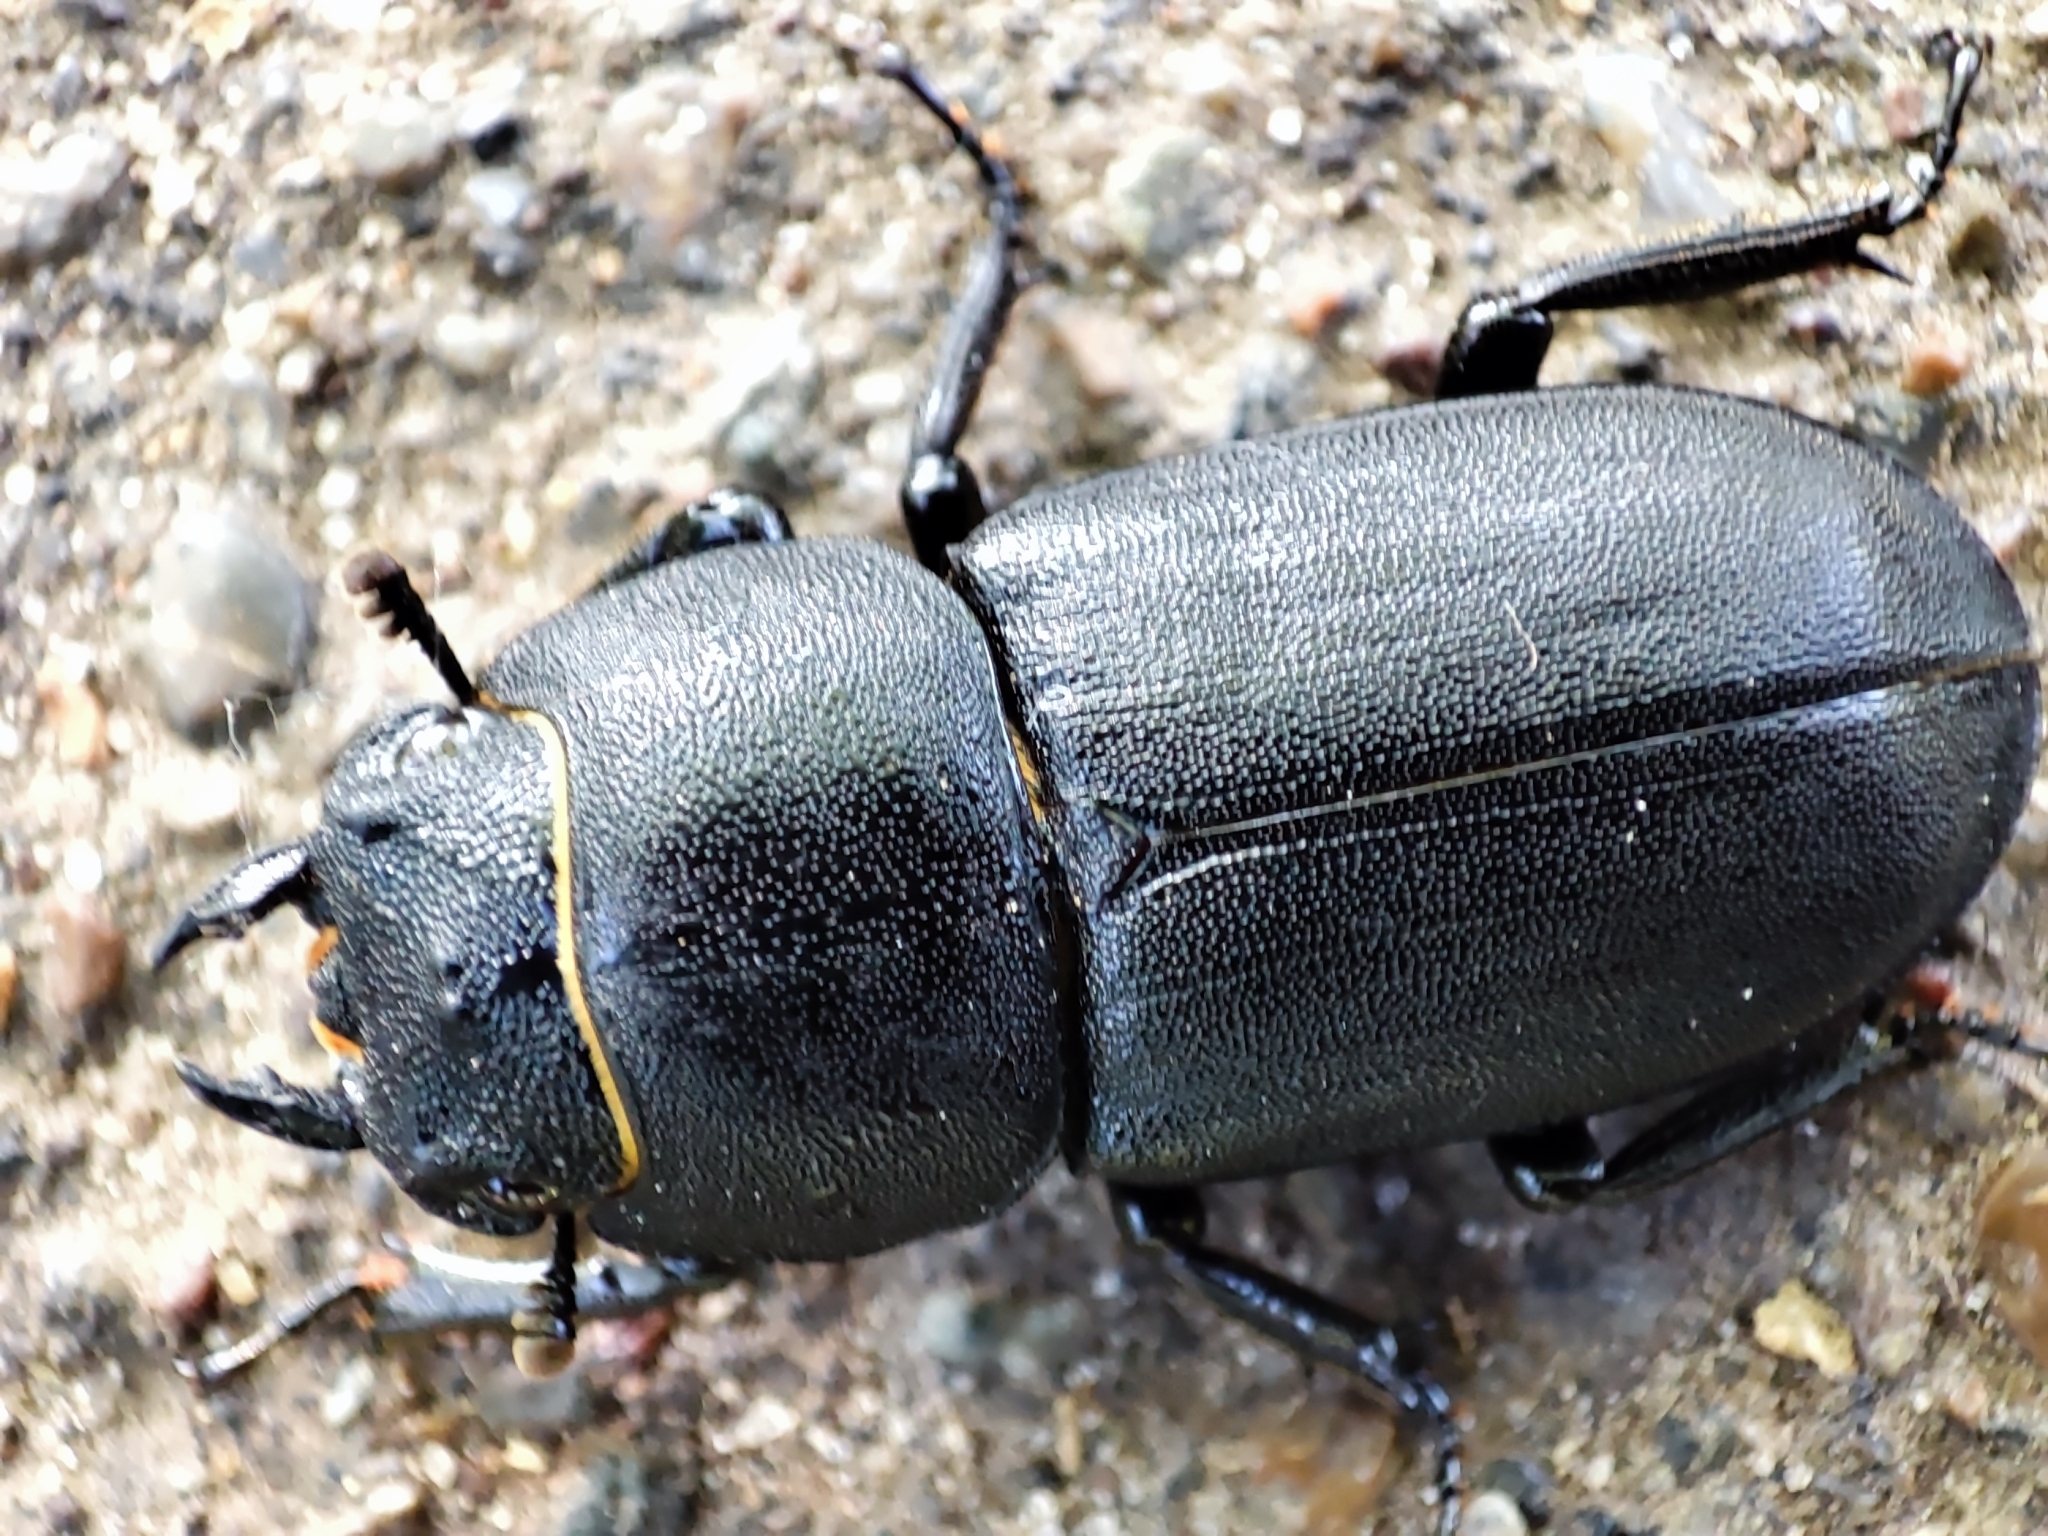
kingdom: Animalia
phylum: Arthropoda
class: Insecta
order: Coleoptera
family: Lucanidae
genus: Dorcus
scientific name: Dorcus parallelipipedus
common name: Lesser stag beetle
